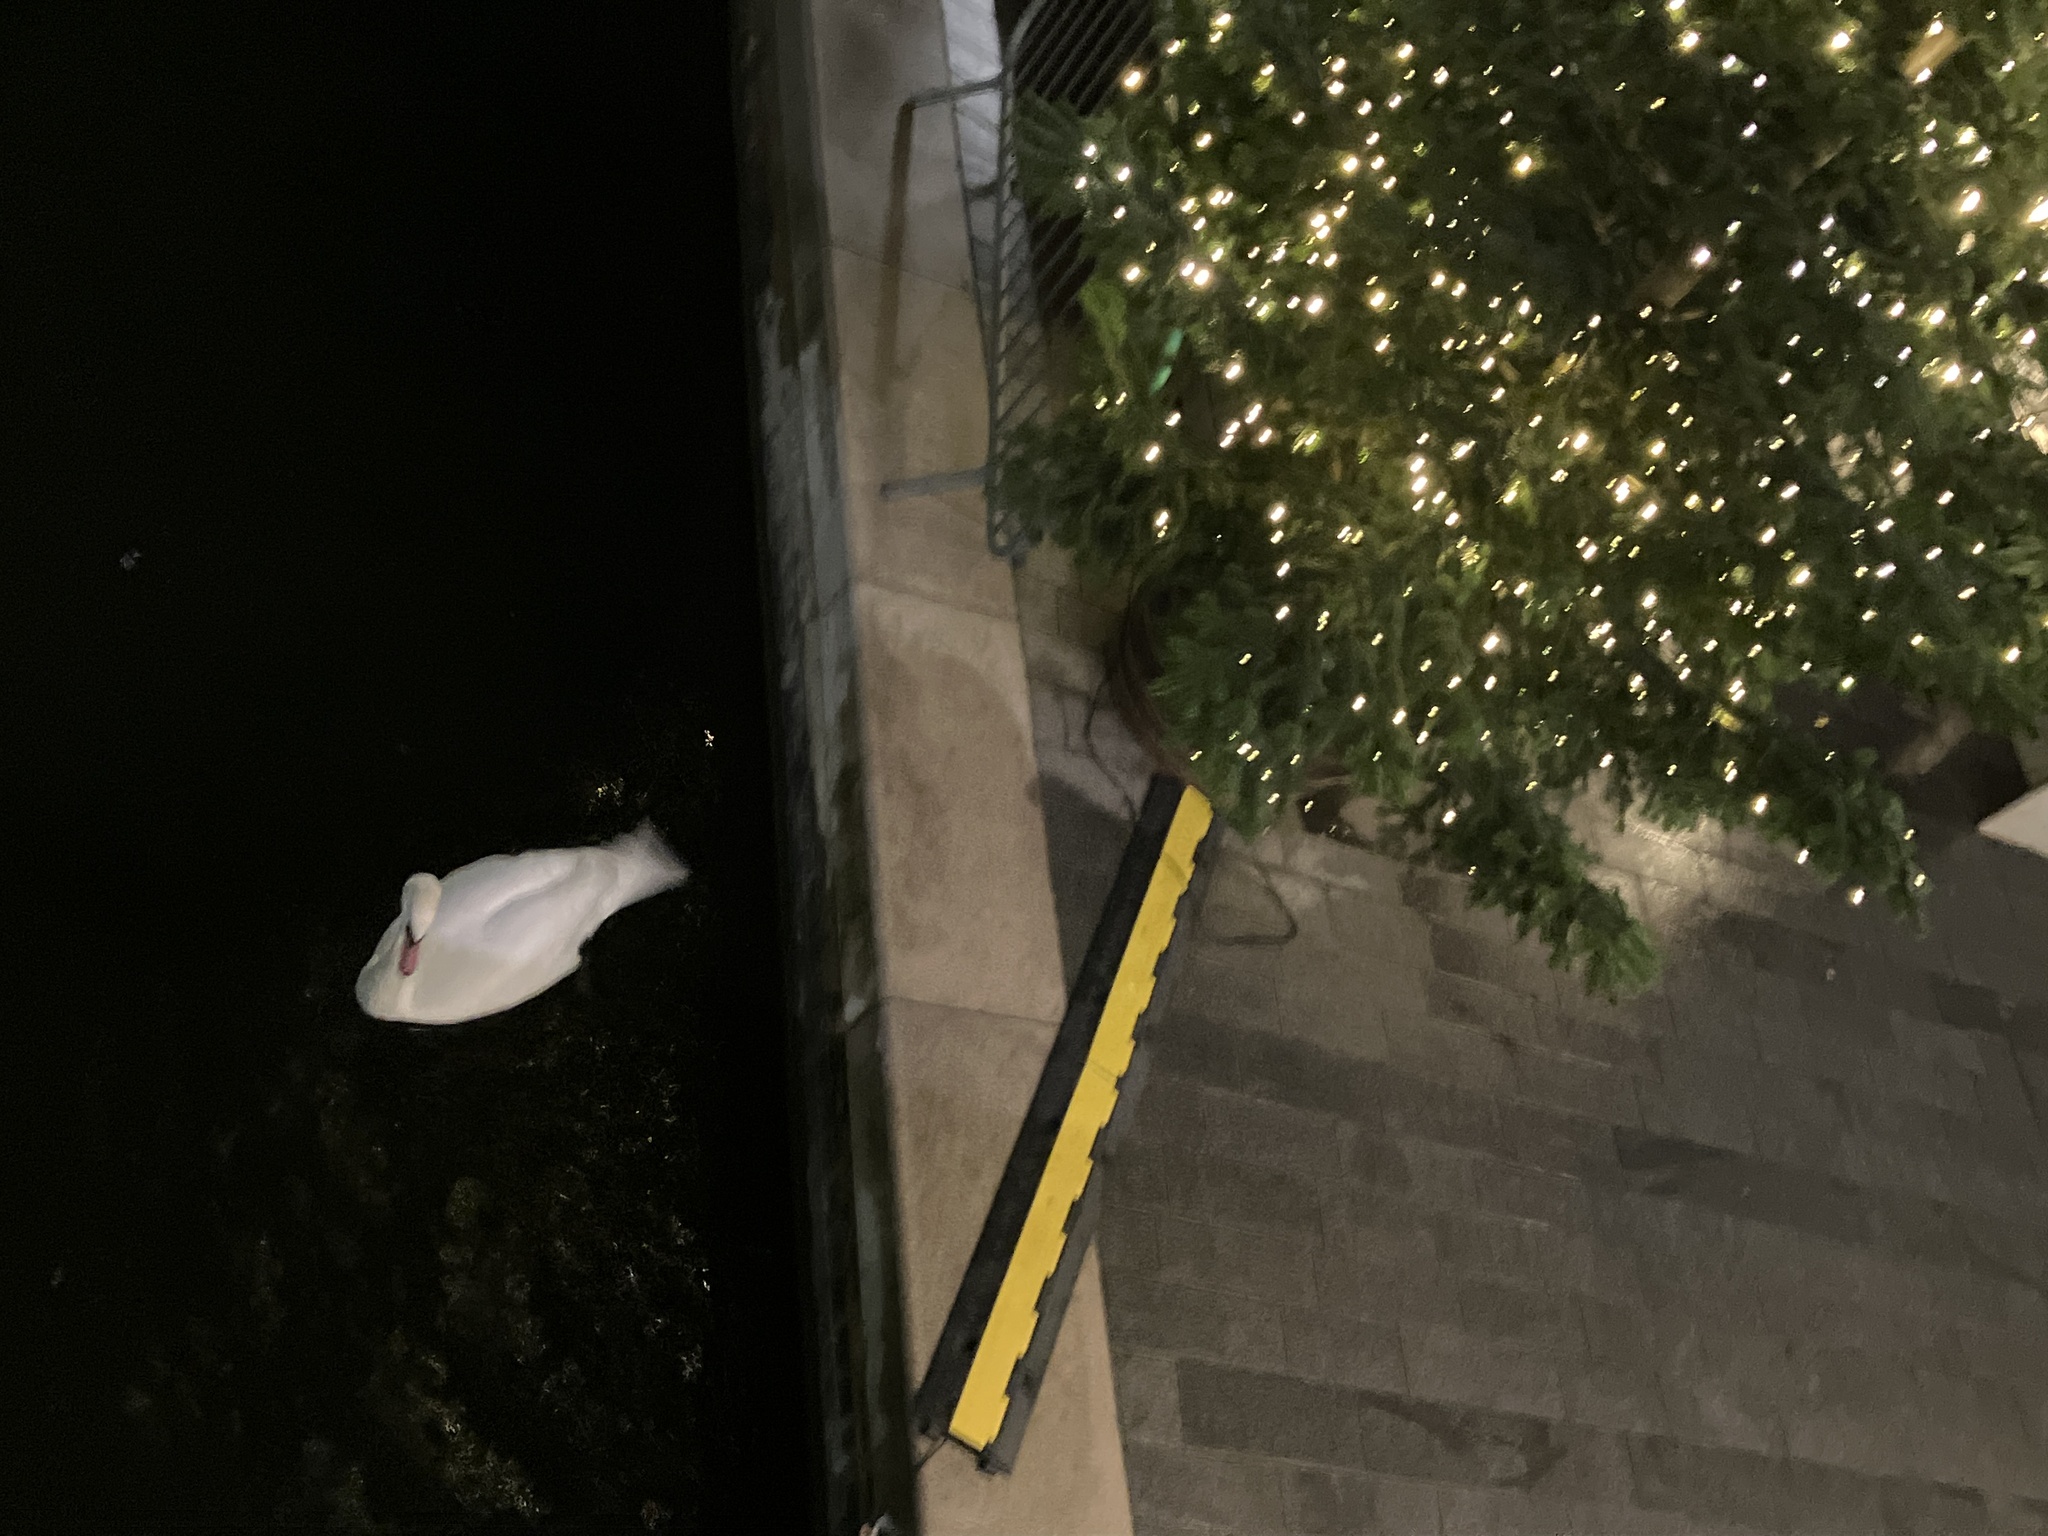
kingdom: Animalia
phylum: Chordata
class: Aves
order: Anseriformes
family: Anatidae
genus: Cygnus
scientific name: Cygnus olor
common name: Mute swan
